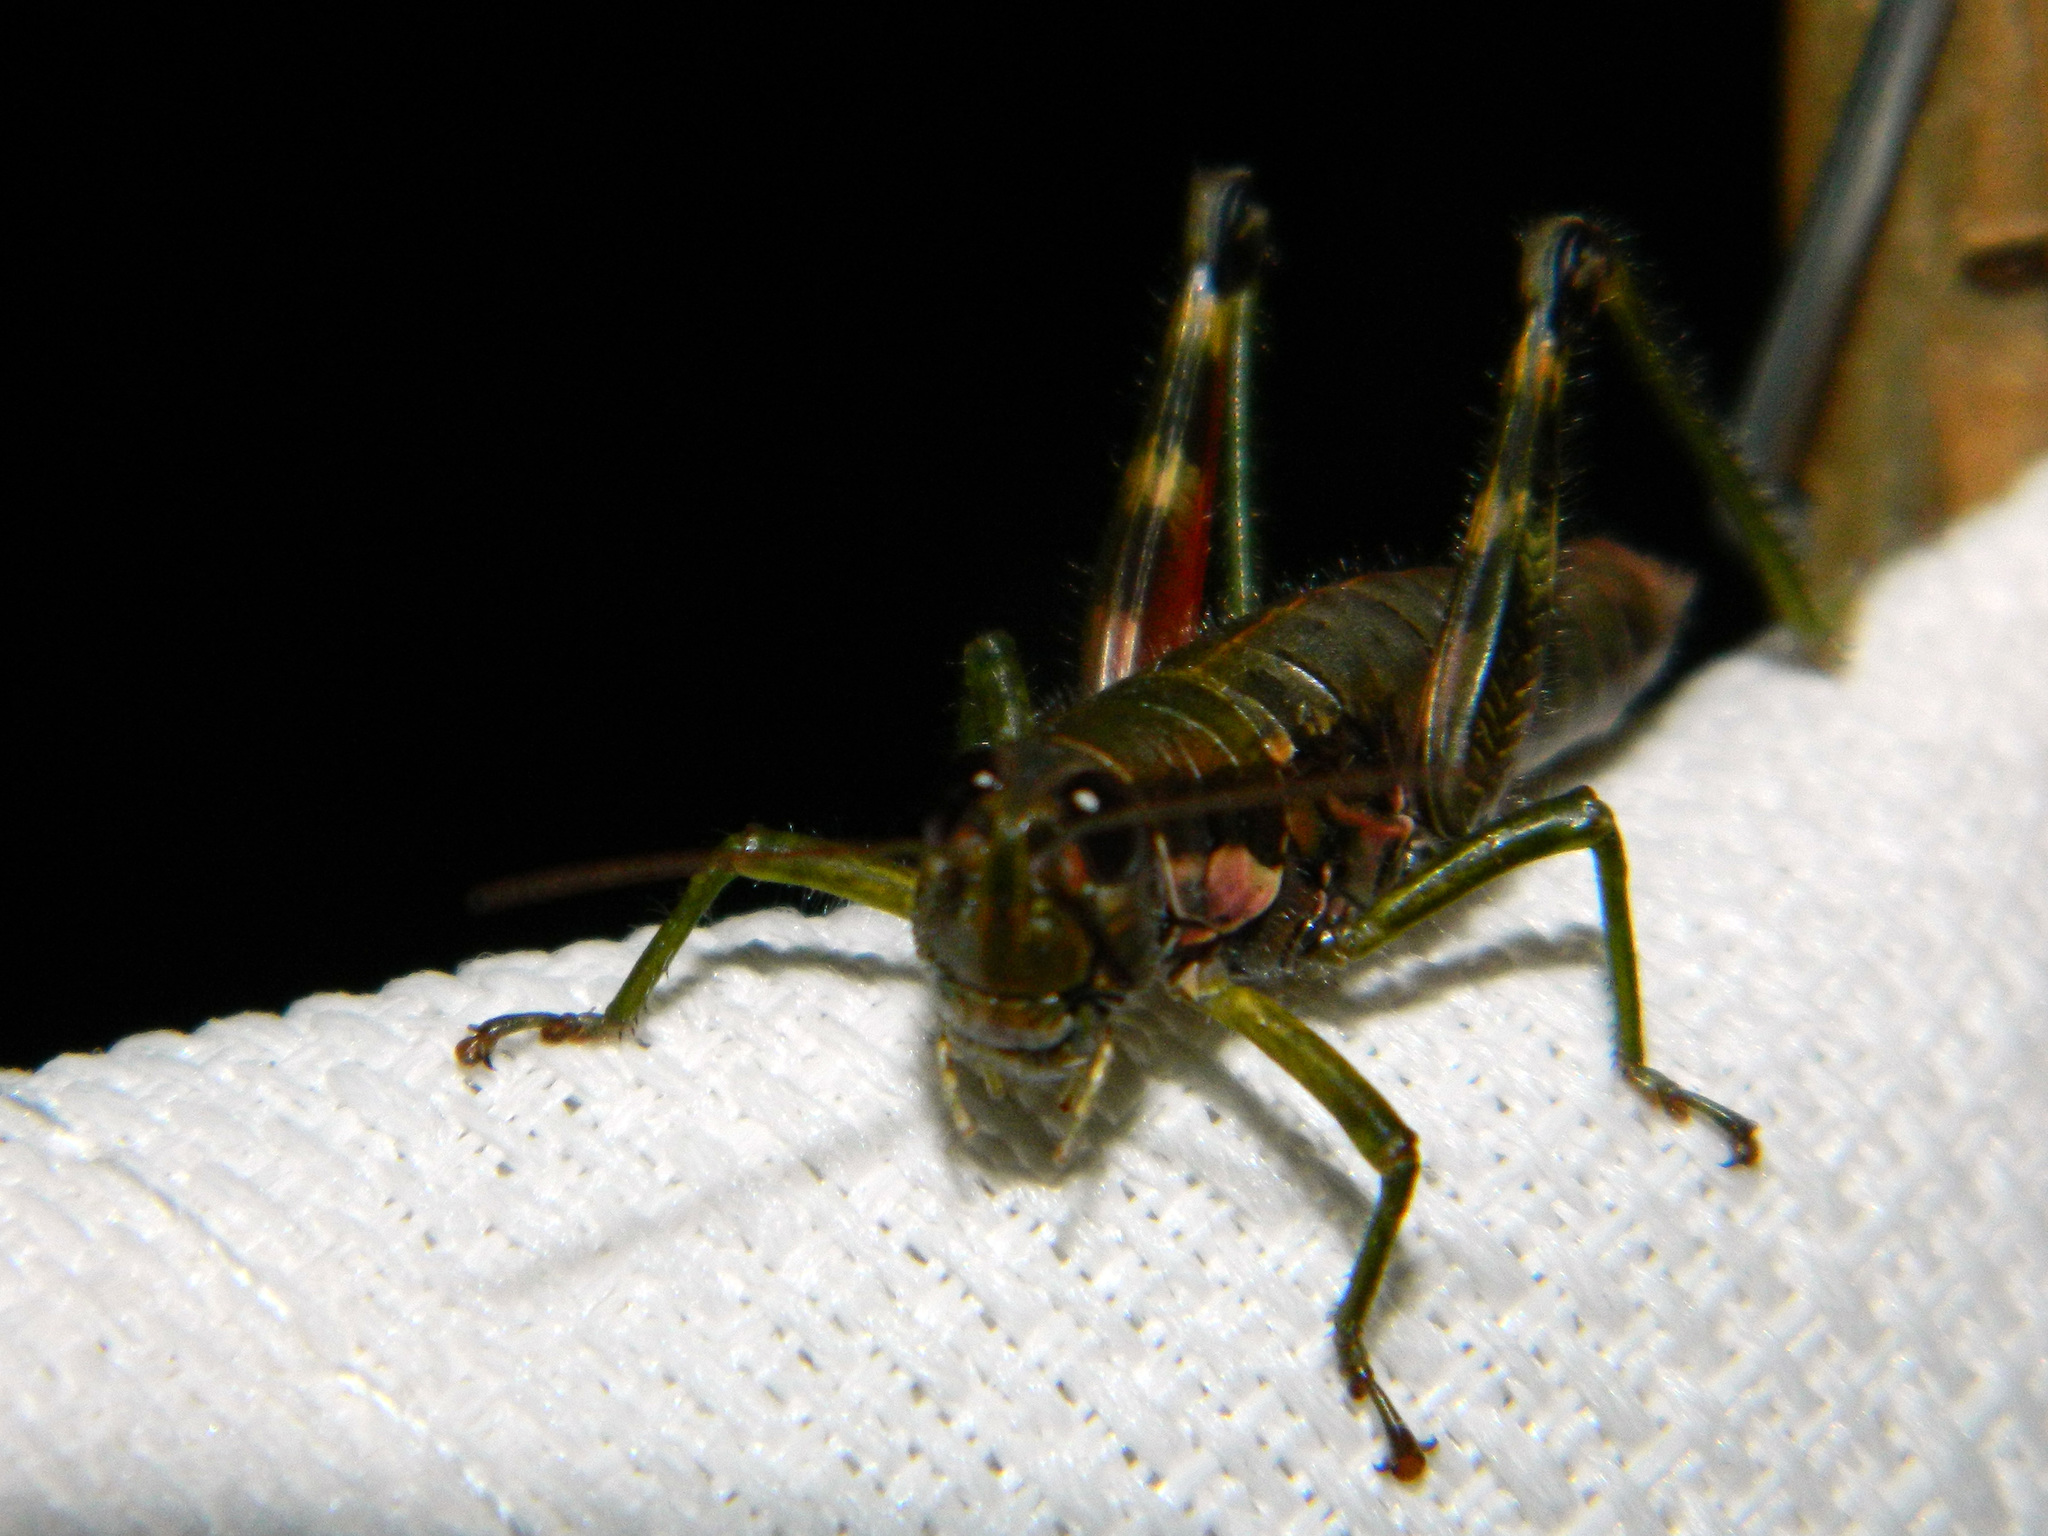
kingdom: Animalia
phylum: Arthropoda
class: Insecta
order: Orthoptera
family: Acrididae
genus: Booneacris
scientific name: Booneacris glacialis
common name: Wingless mountain grasshopper
